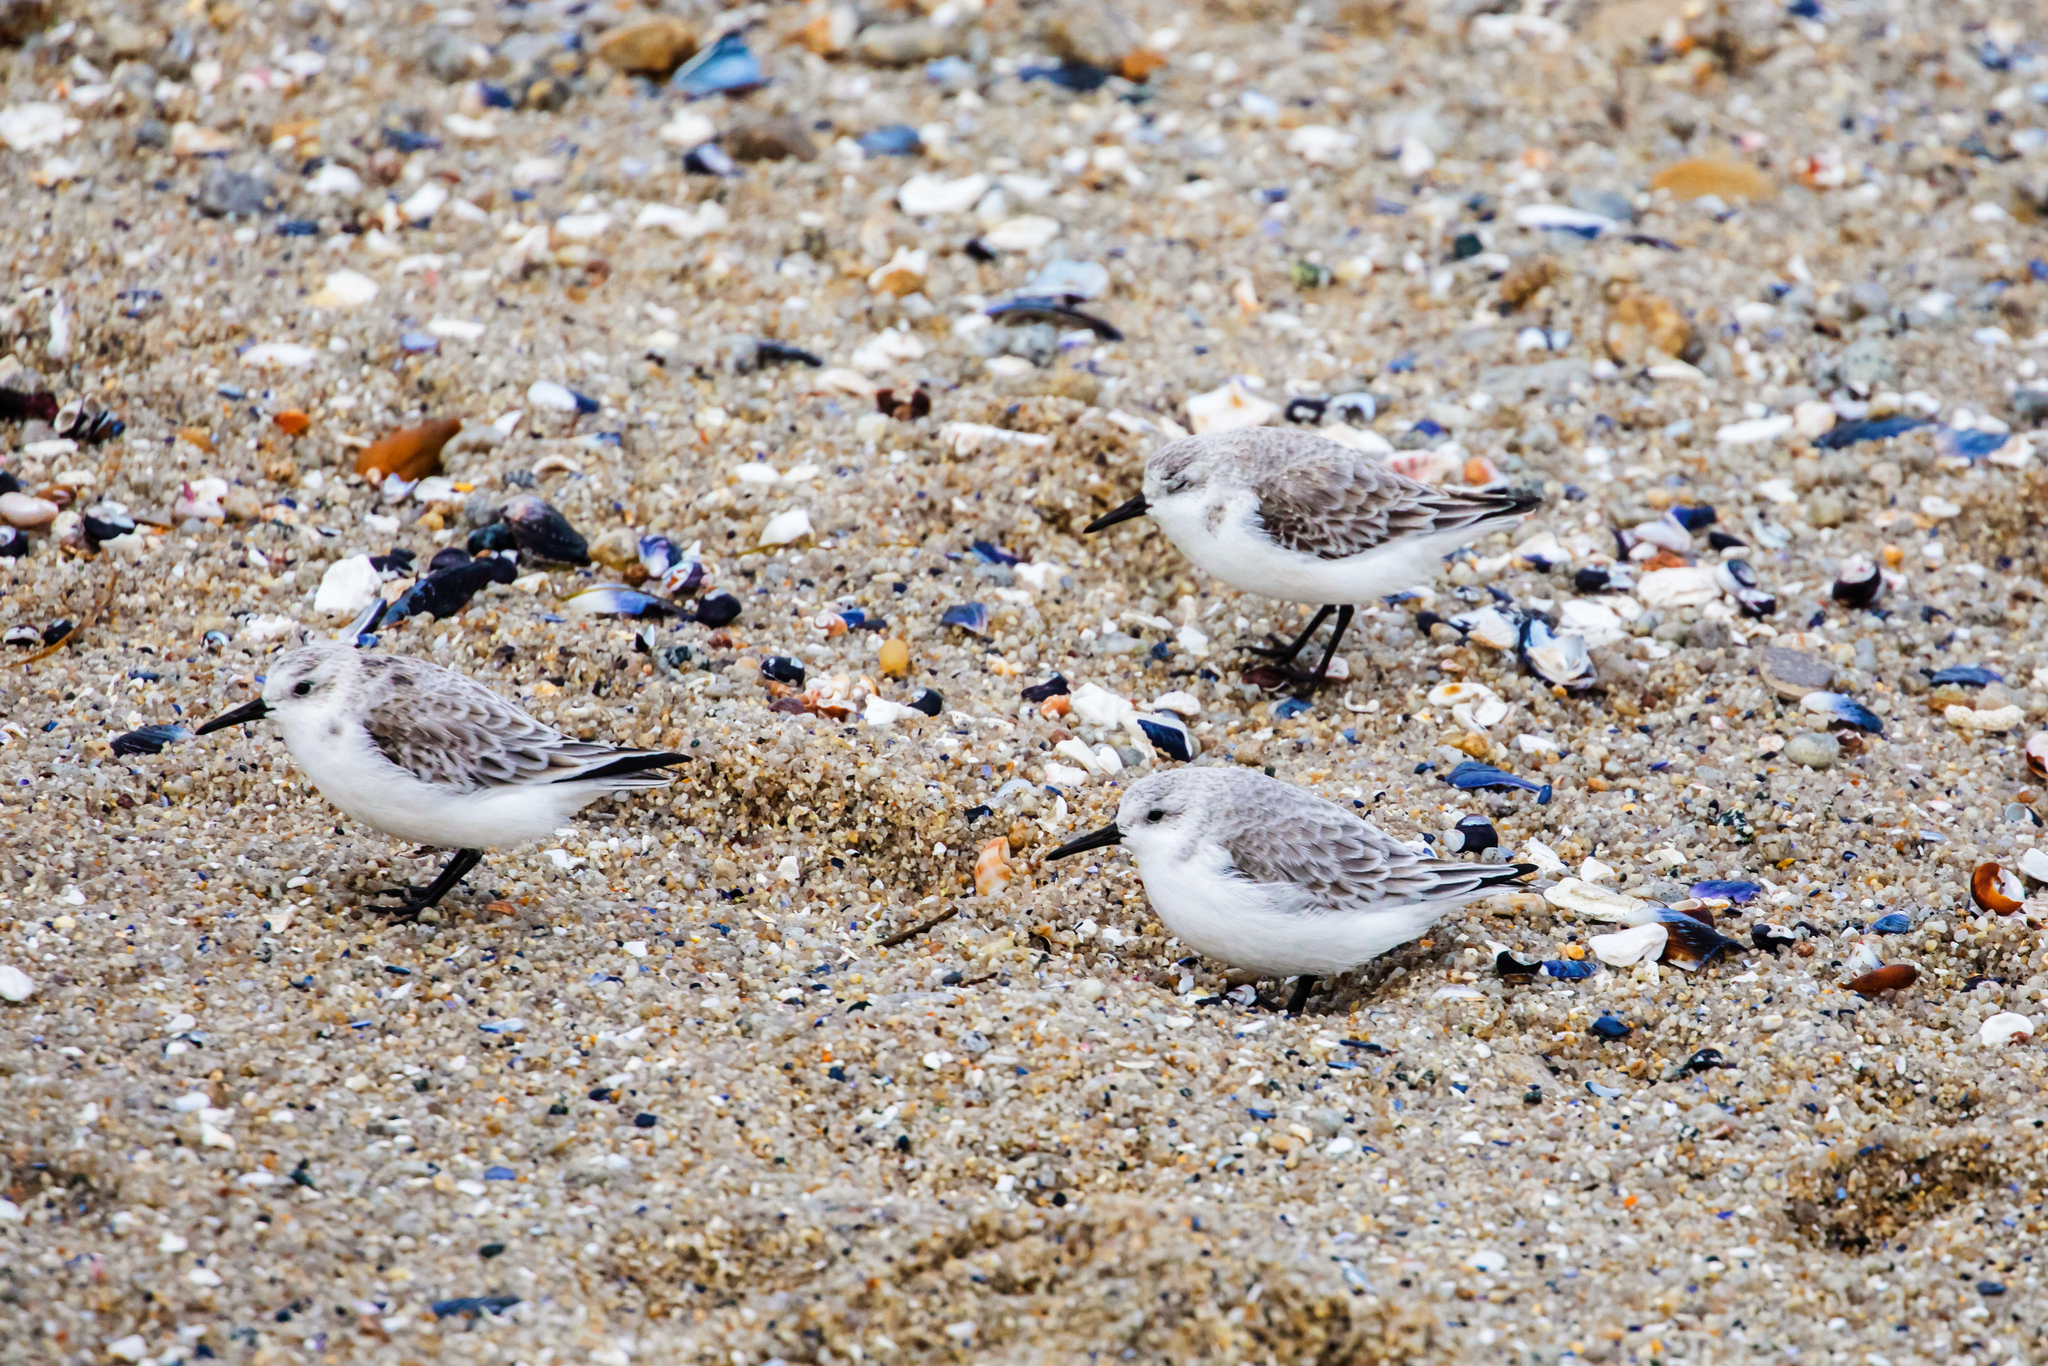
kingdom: Animalia
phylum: Chordata
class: Aves
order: Charadriiformes
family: Scolopacidae
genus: Calidris
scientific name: Calidris alba
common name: Sanderling
